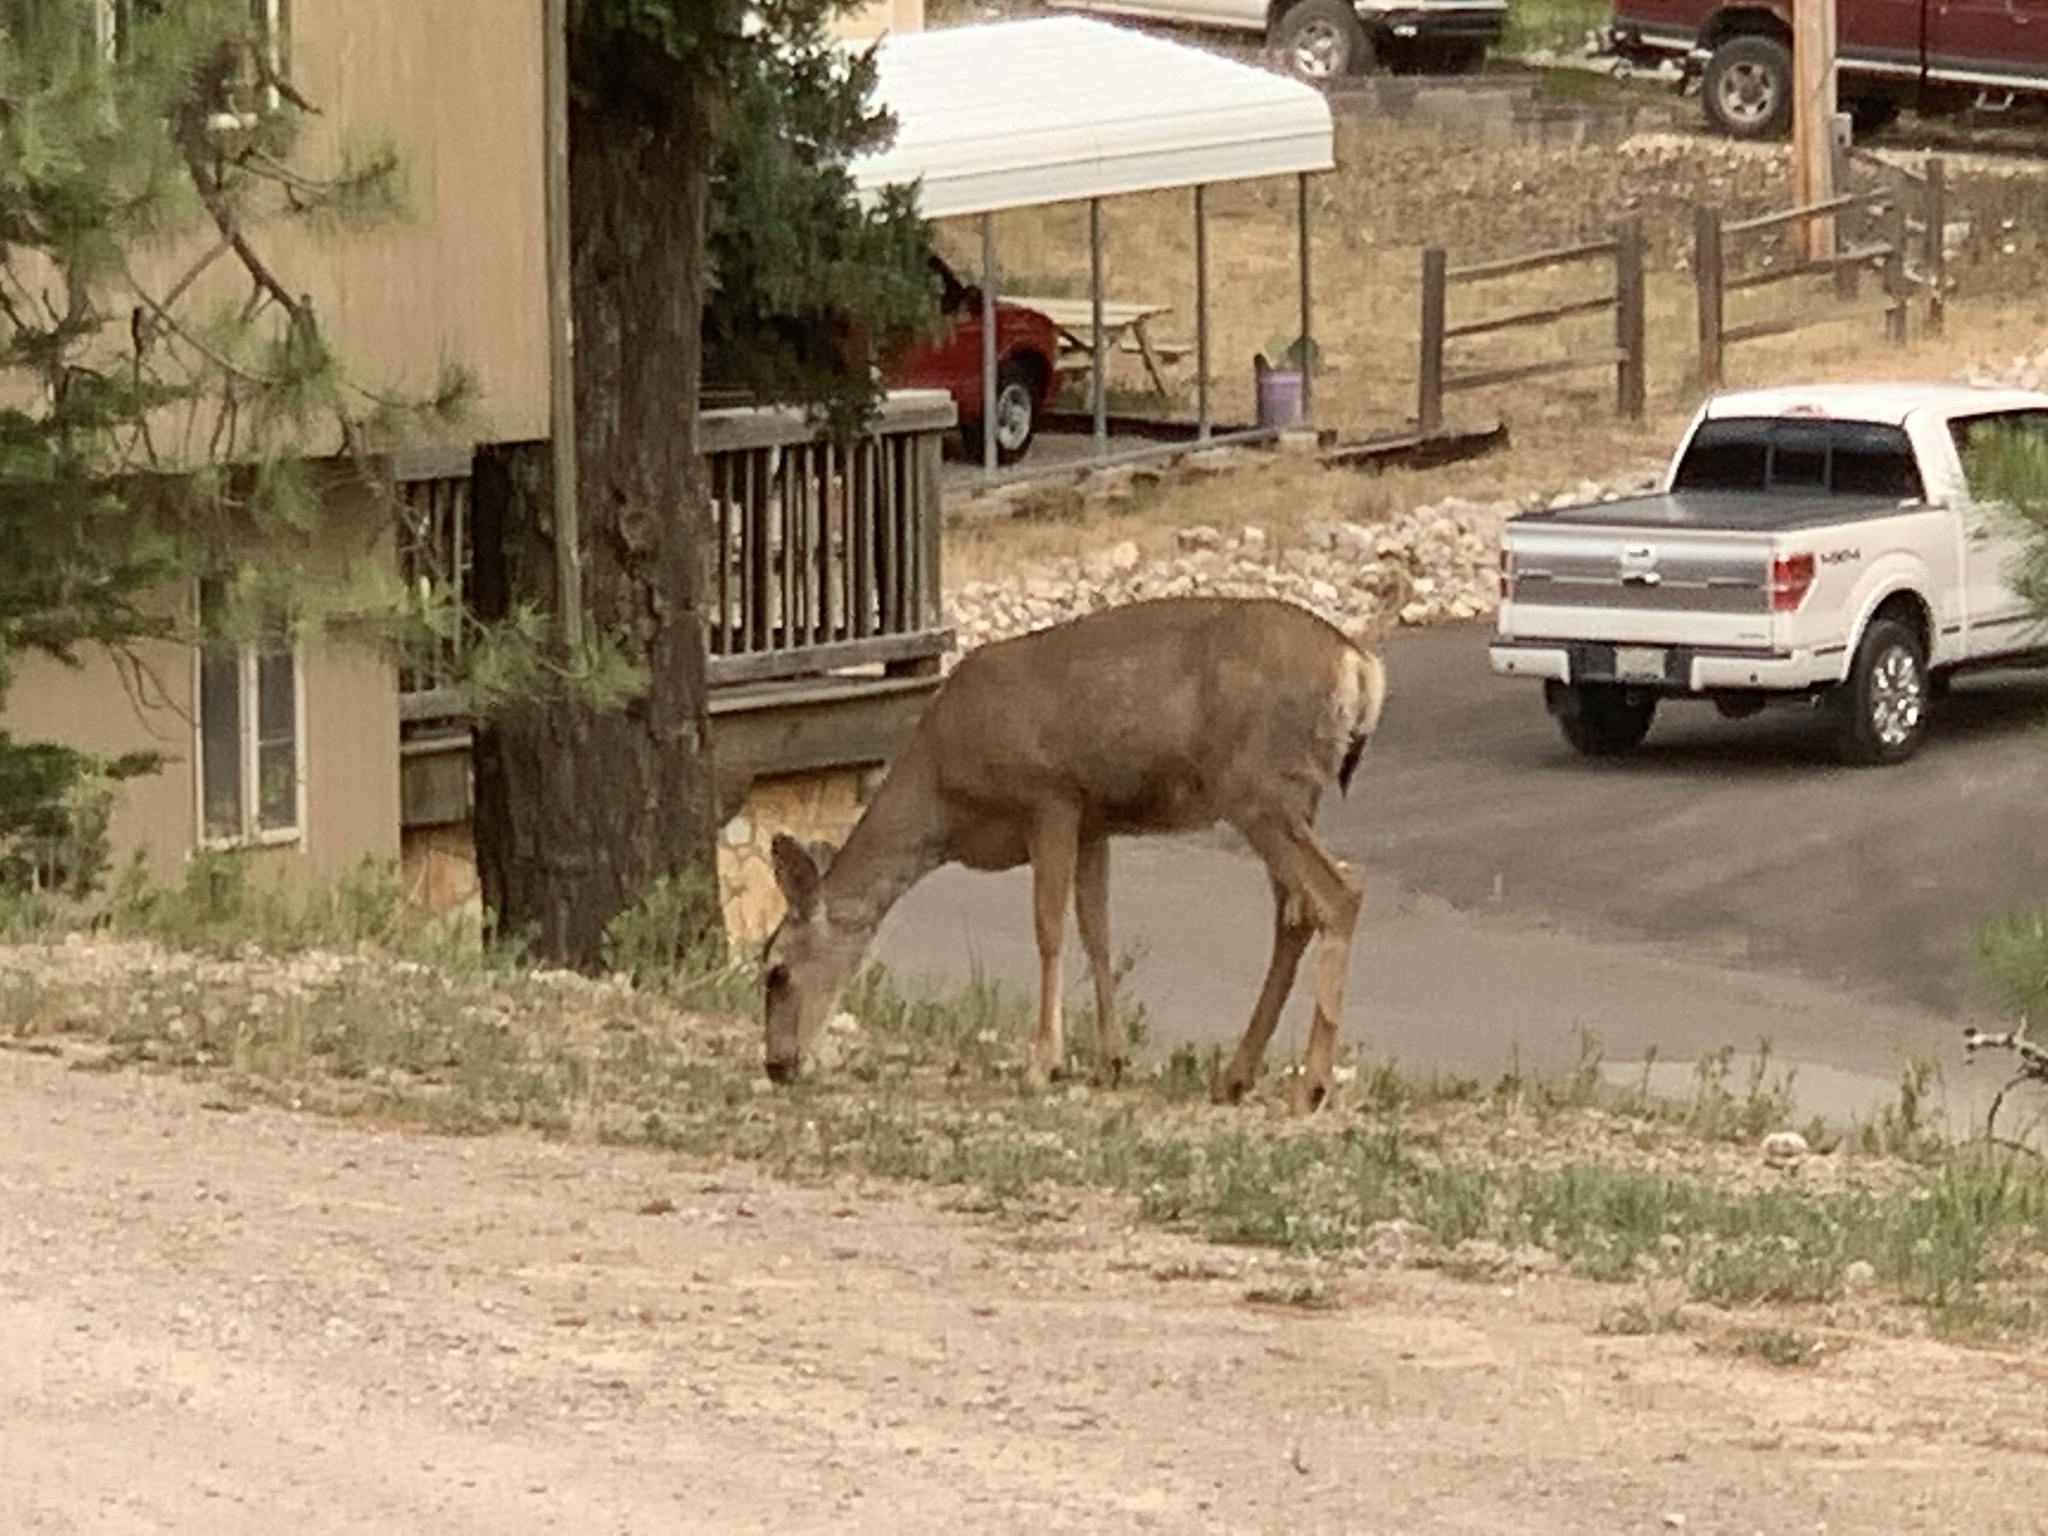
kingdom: Animalia
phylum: Chordata
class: Mammalia
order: Artiodactyla
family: Cervidae
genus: Odocoileus
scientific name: Odocoileus hemionus
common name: Mule deer
